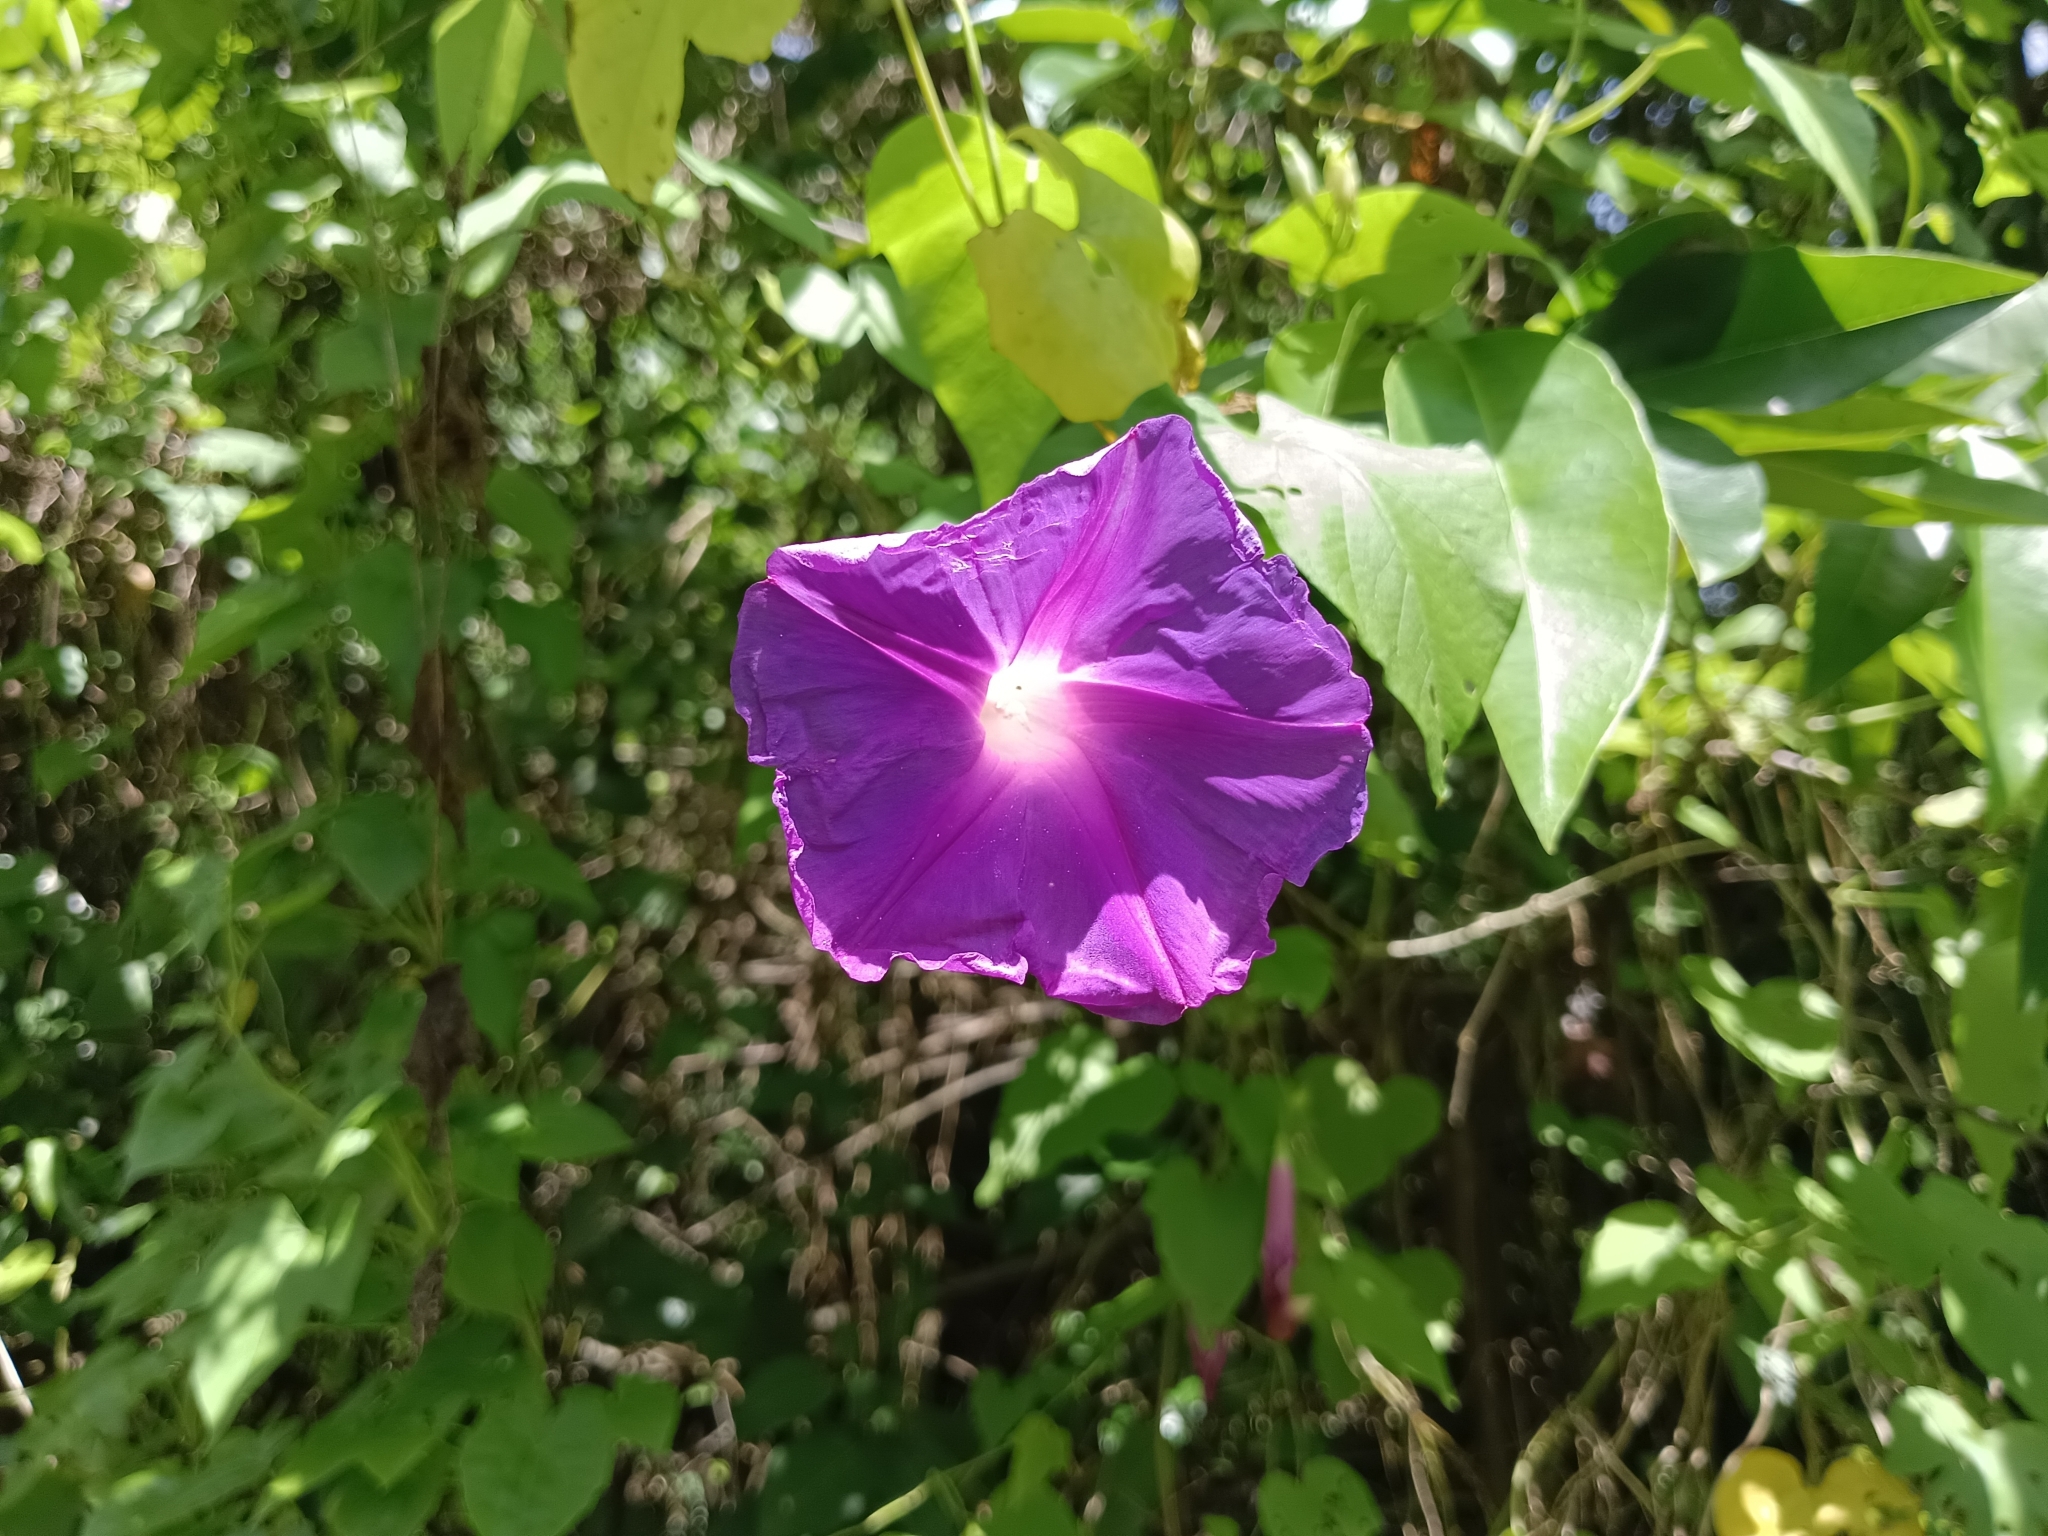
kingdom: Plantae
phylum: Tracheophyta
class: Magnoliopsida
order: Solanales
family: Convolvulaceae
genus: Ipomoea
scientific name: Ipomoea indica
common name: Blue dawnflower
